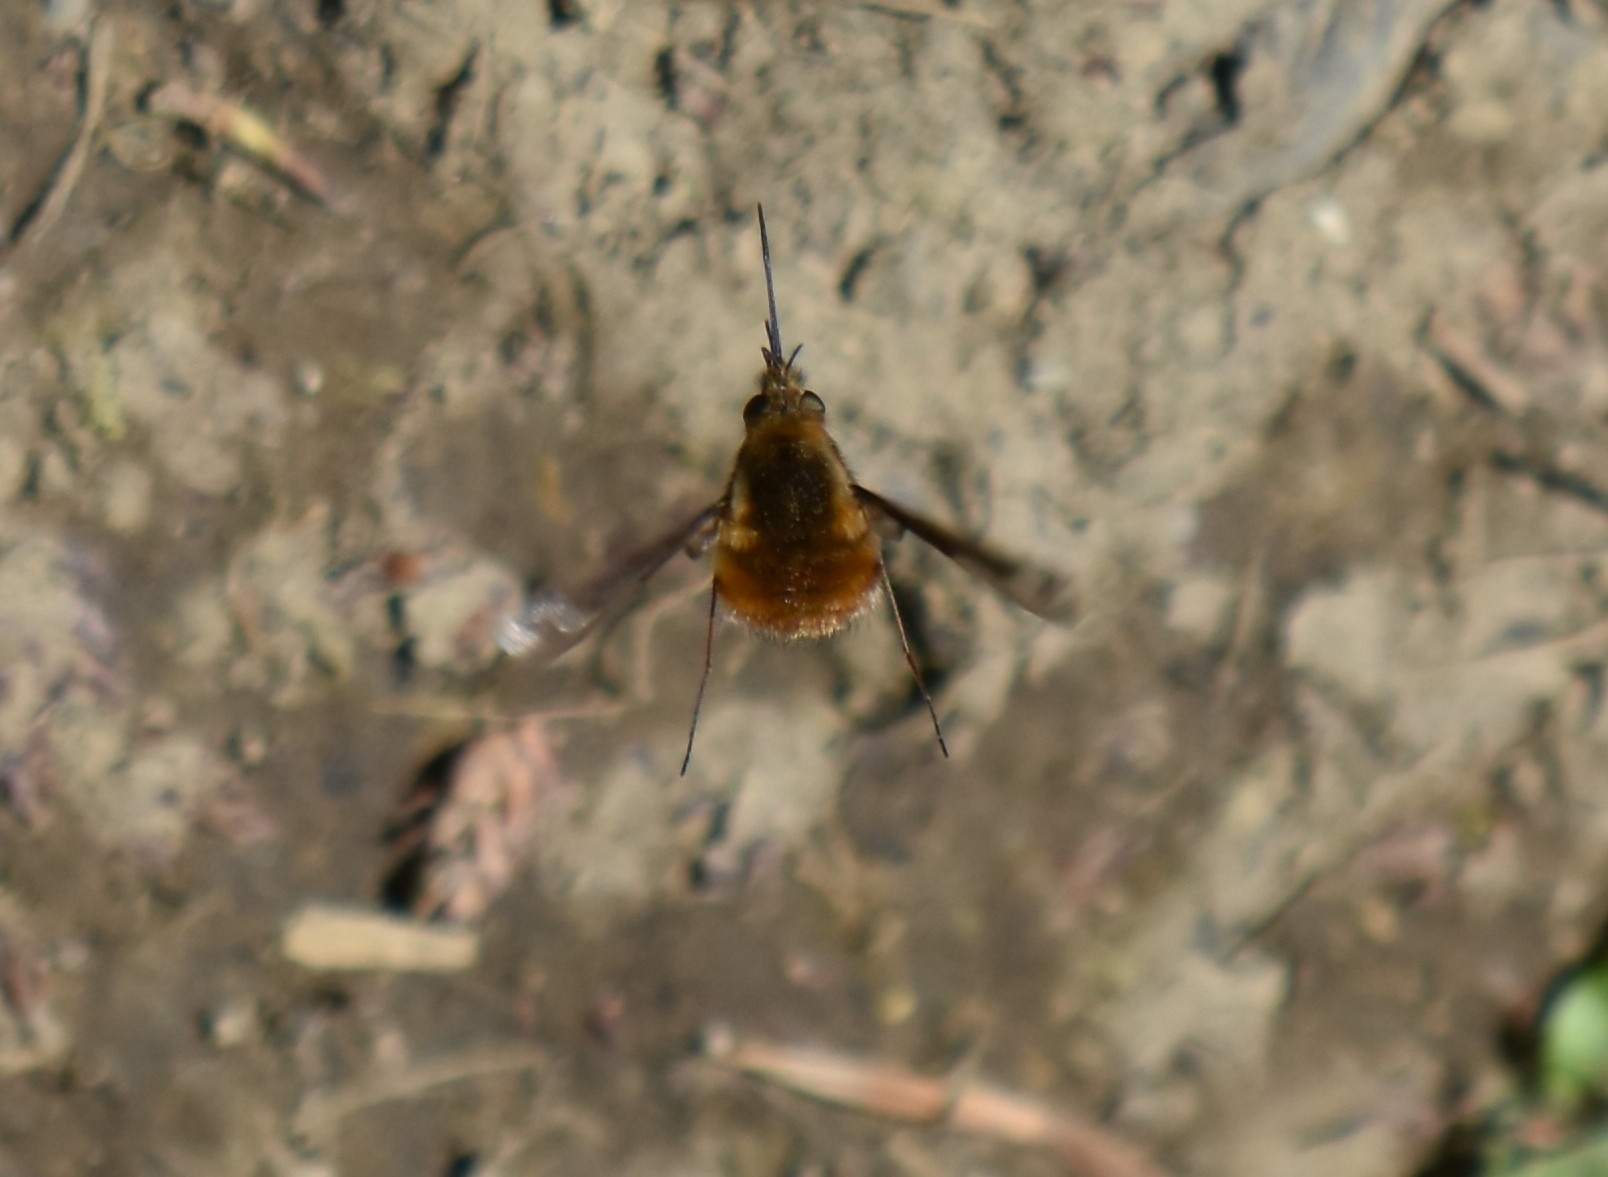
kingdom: Animalia
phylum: Arthropoda
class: Insecta
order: Diptera
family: Bombyliidae
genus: Bombylius
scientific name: Bombylius major
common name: Bee fly
